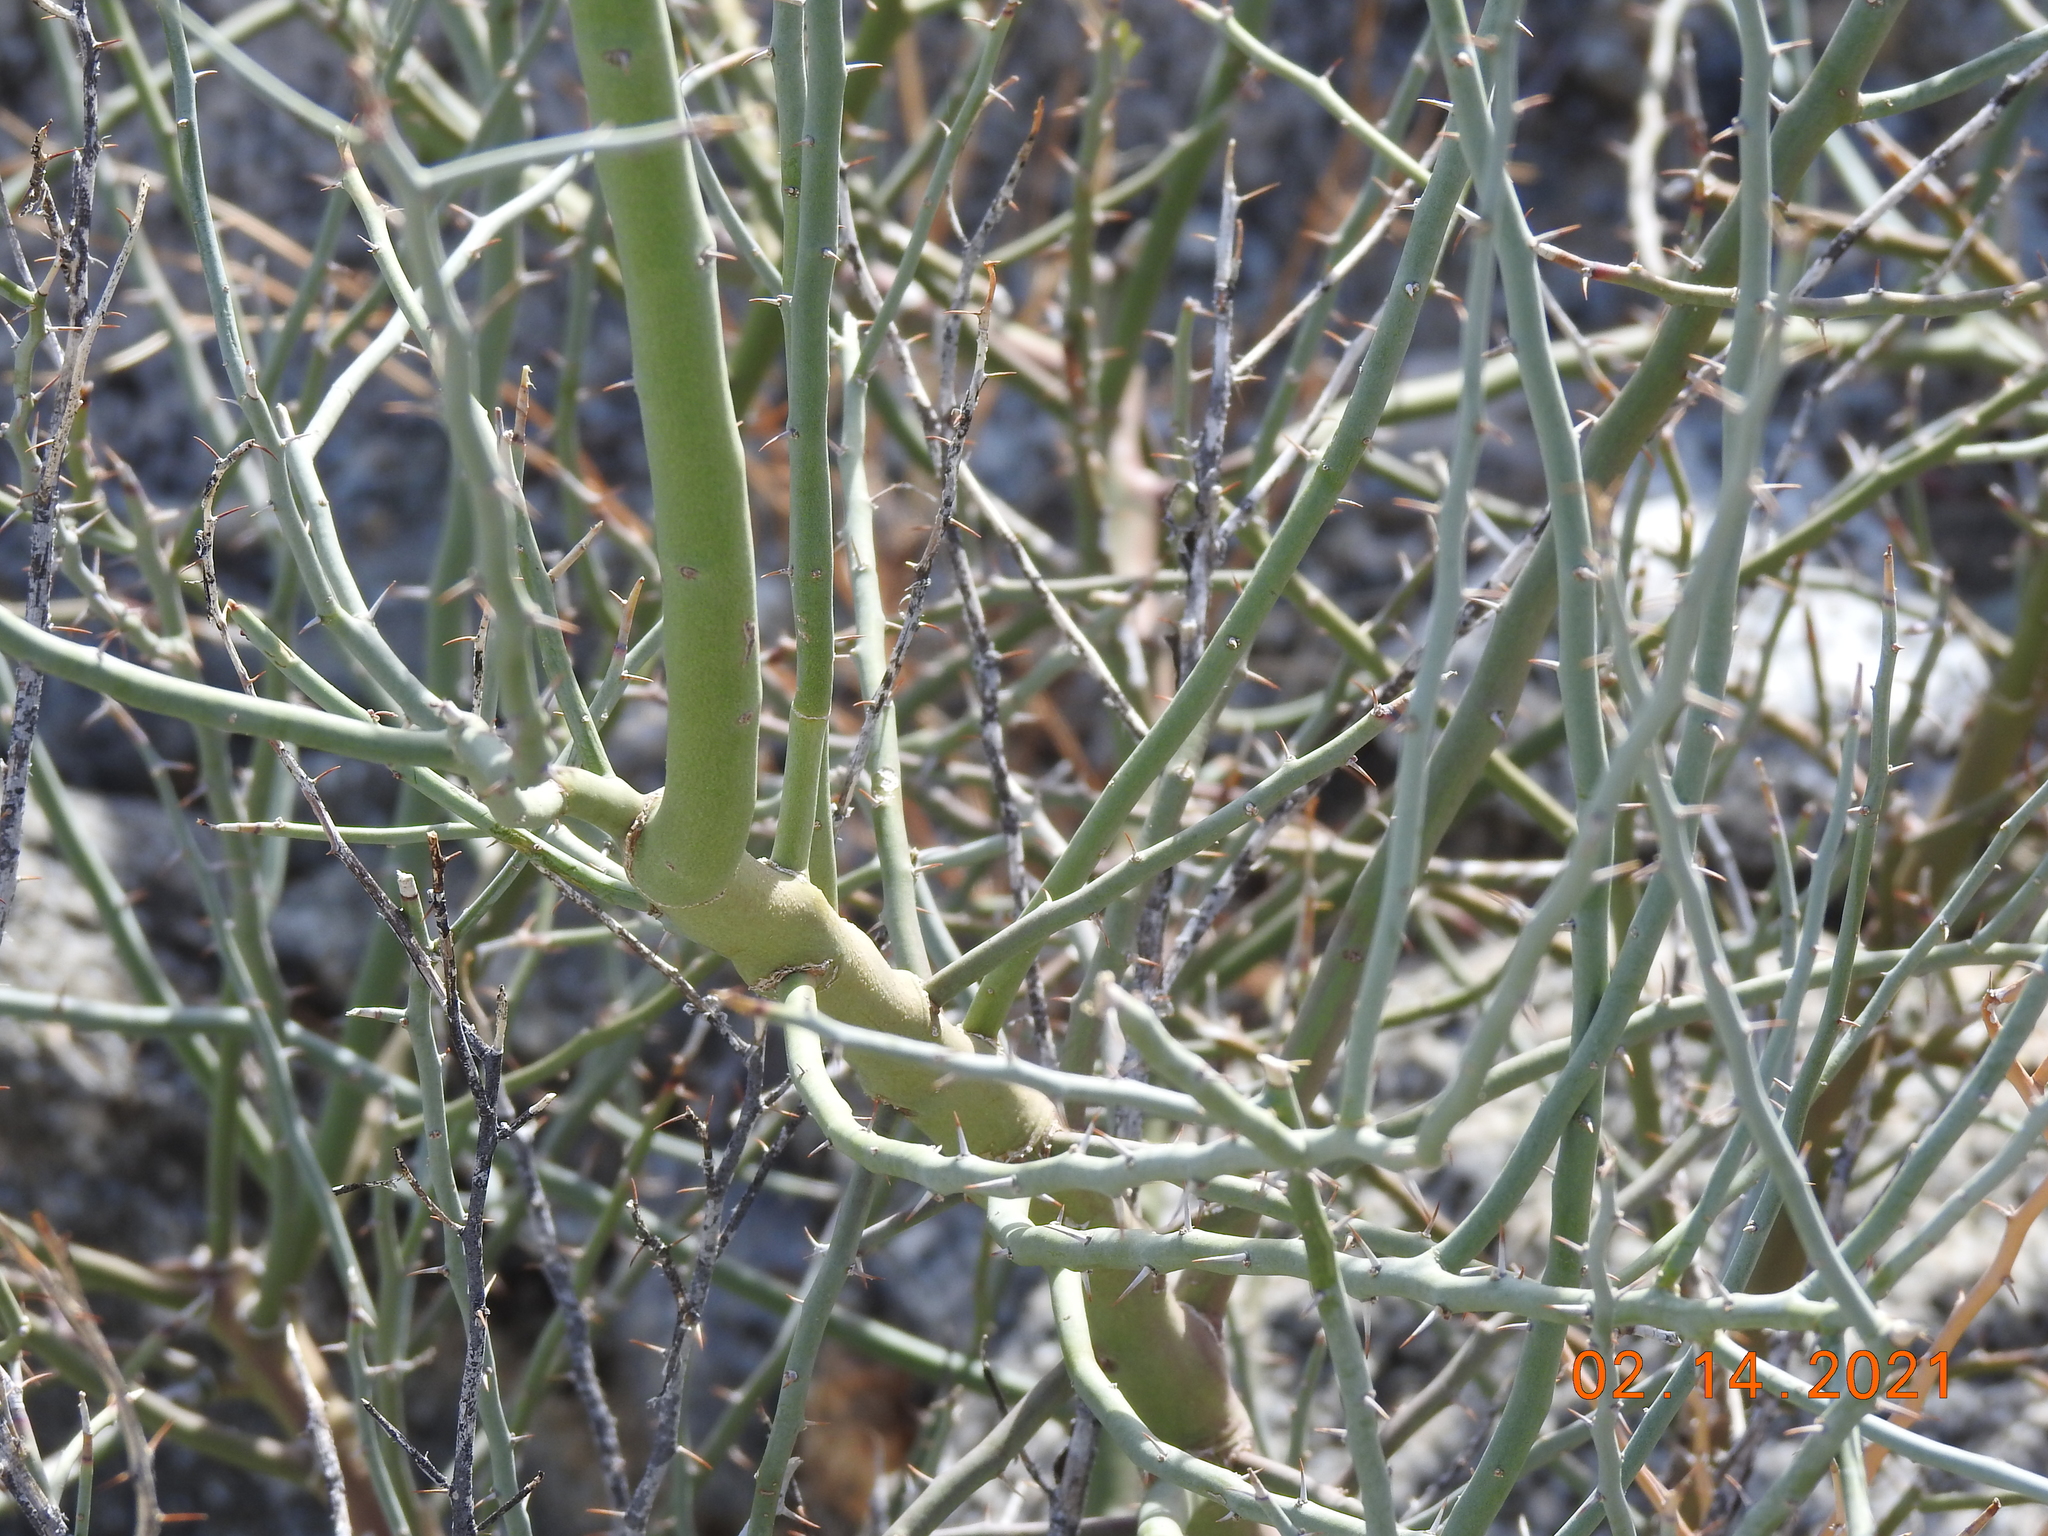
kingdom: Plantae
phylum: Tracheophyta
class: Magnoliopsida
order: Fabales
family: Fabaceae
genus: Parkinsonia
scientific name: Parkinsonia florida
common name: Blue paloverde
